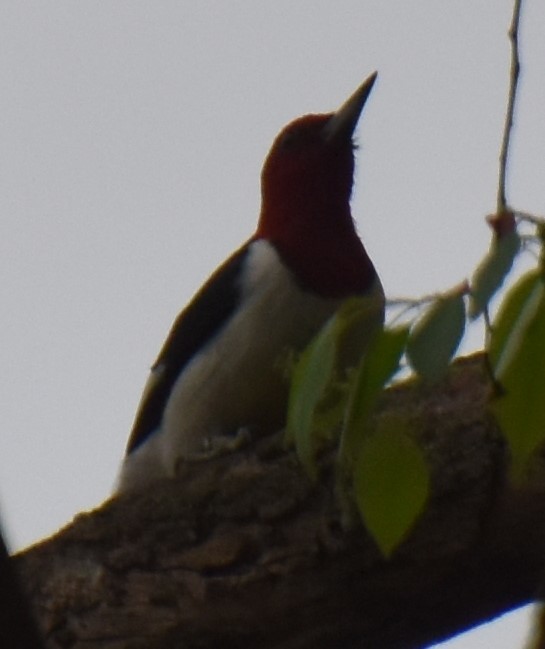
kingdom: Animalia
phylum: Chordata
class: Aves
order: Piciformes
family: Picidae
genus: Melanerpes
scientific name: Melanerpes erythrocephalus
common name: Red-headed woodpecker
